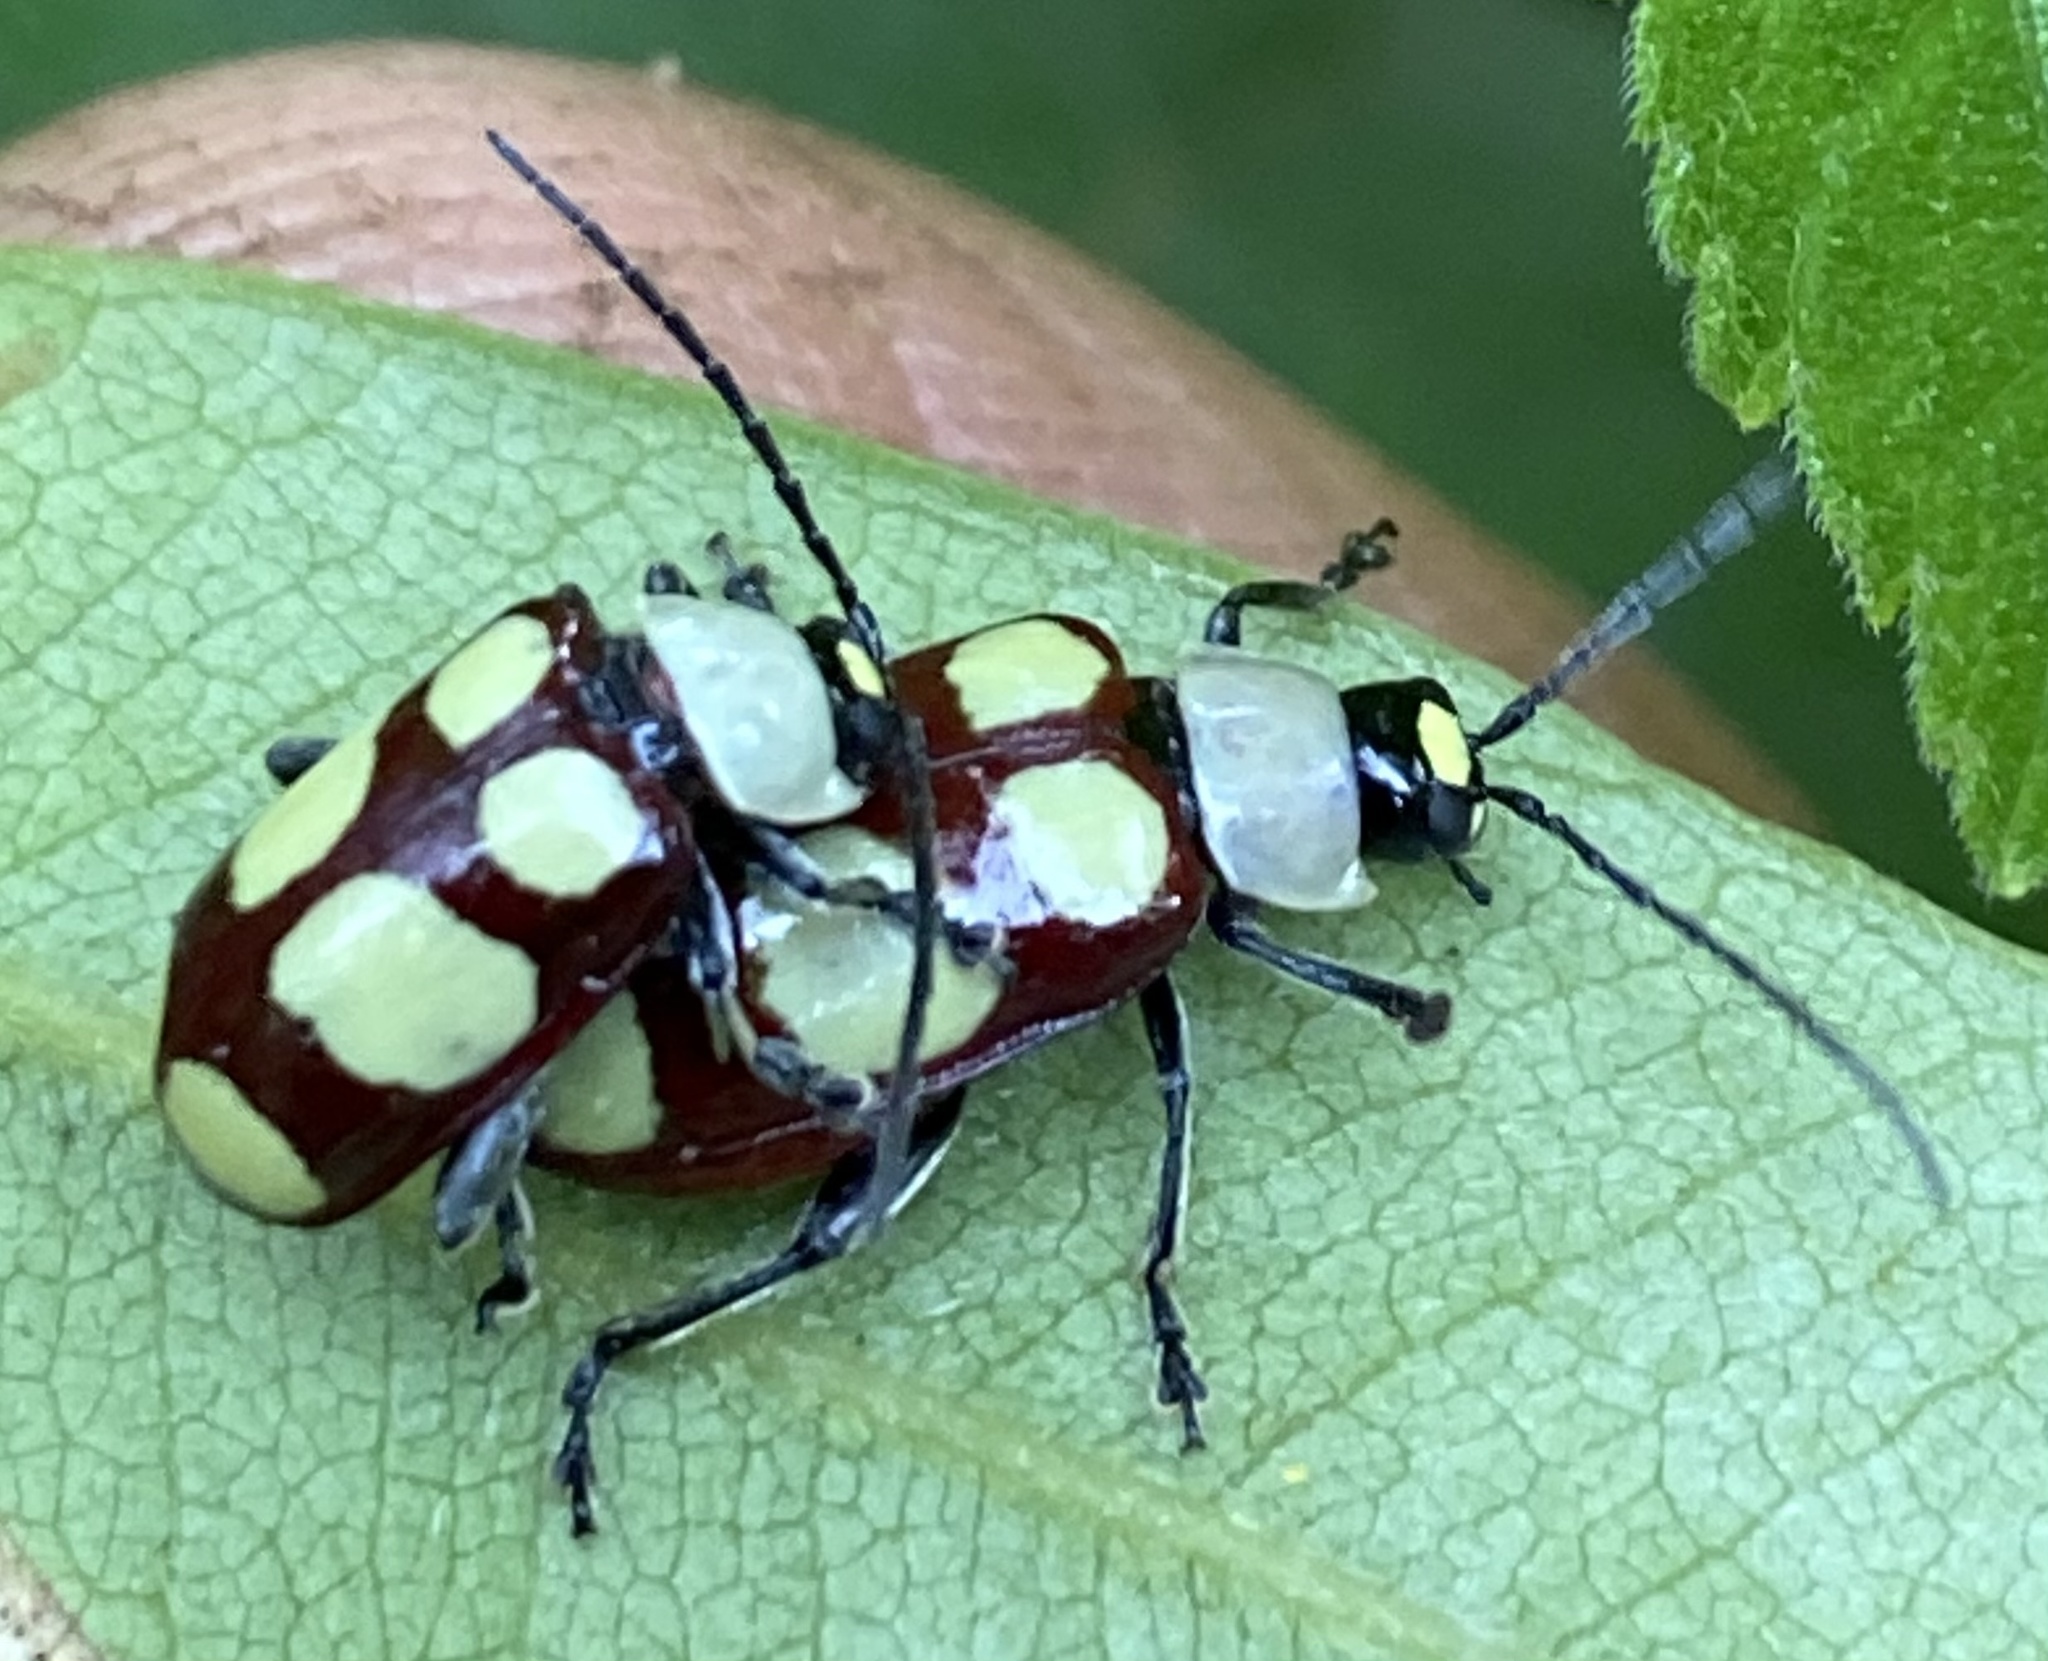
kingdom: Animalia
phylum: Arthropoda
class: Insecta
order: Coleoptera
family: Chrysomelidae
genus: Omophoita
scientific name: Omophoita
